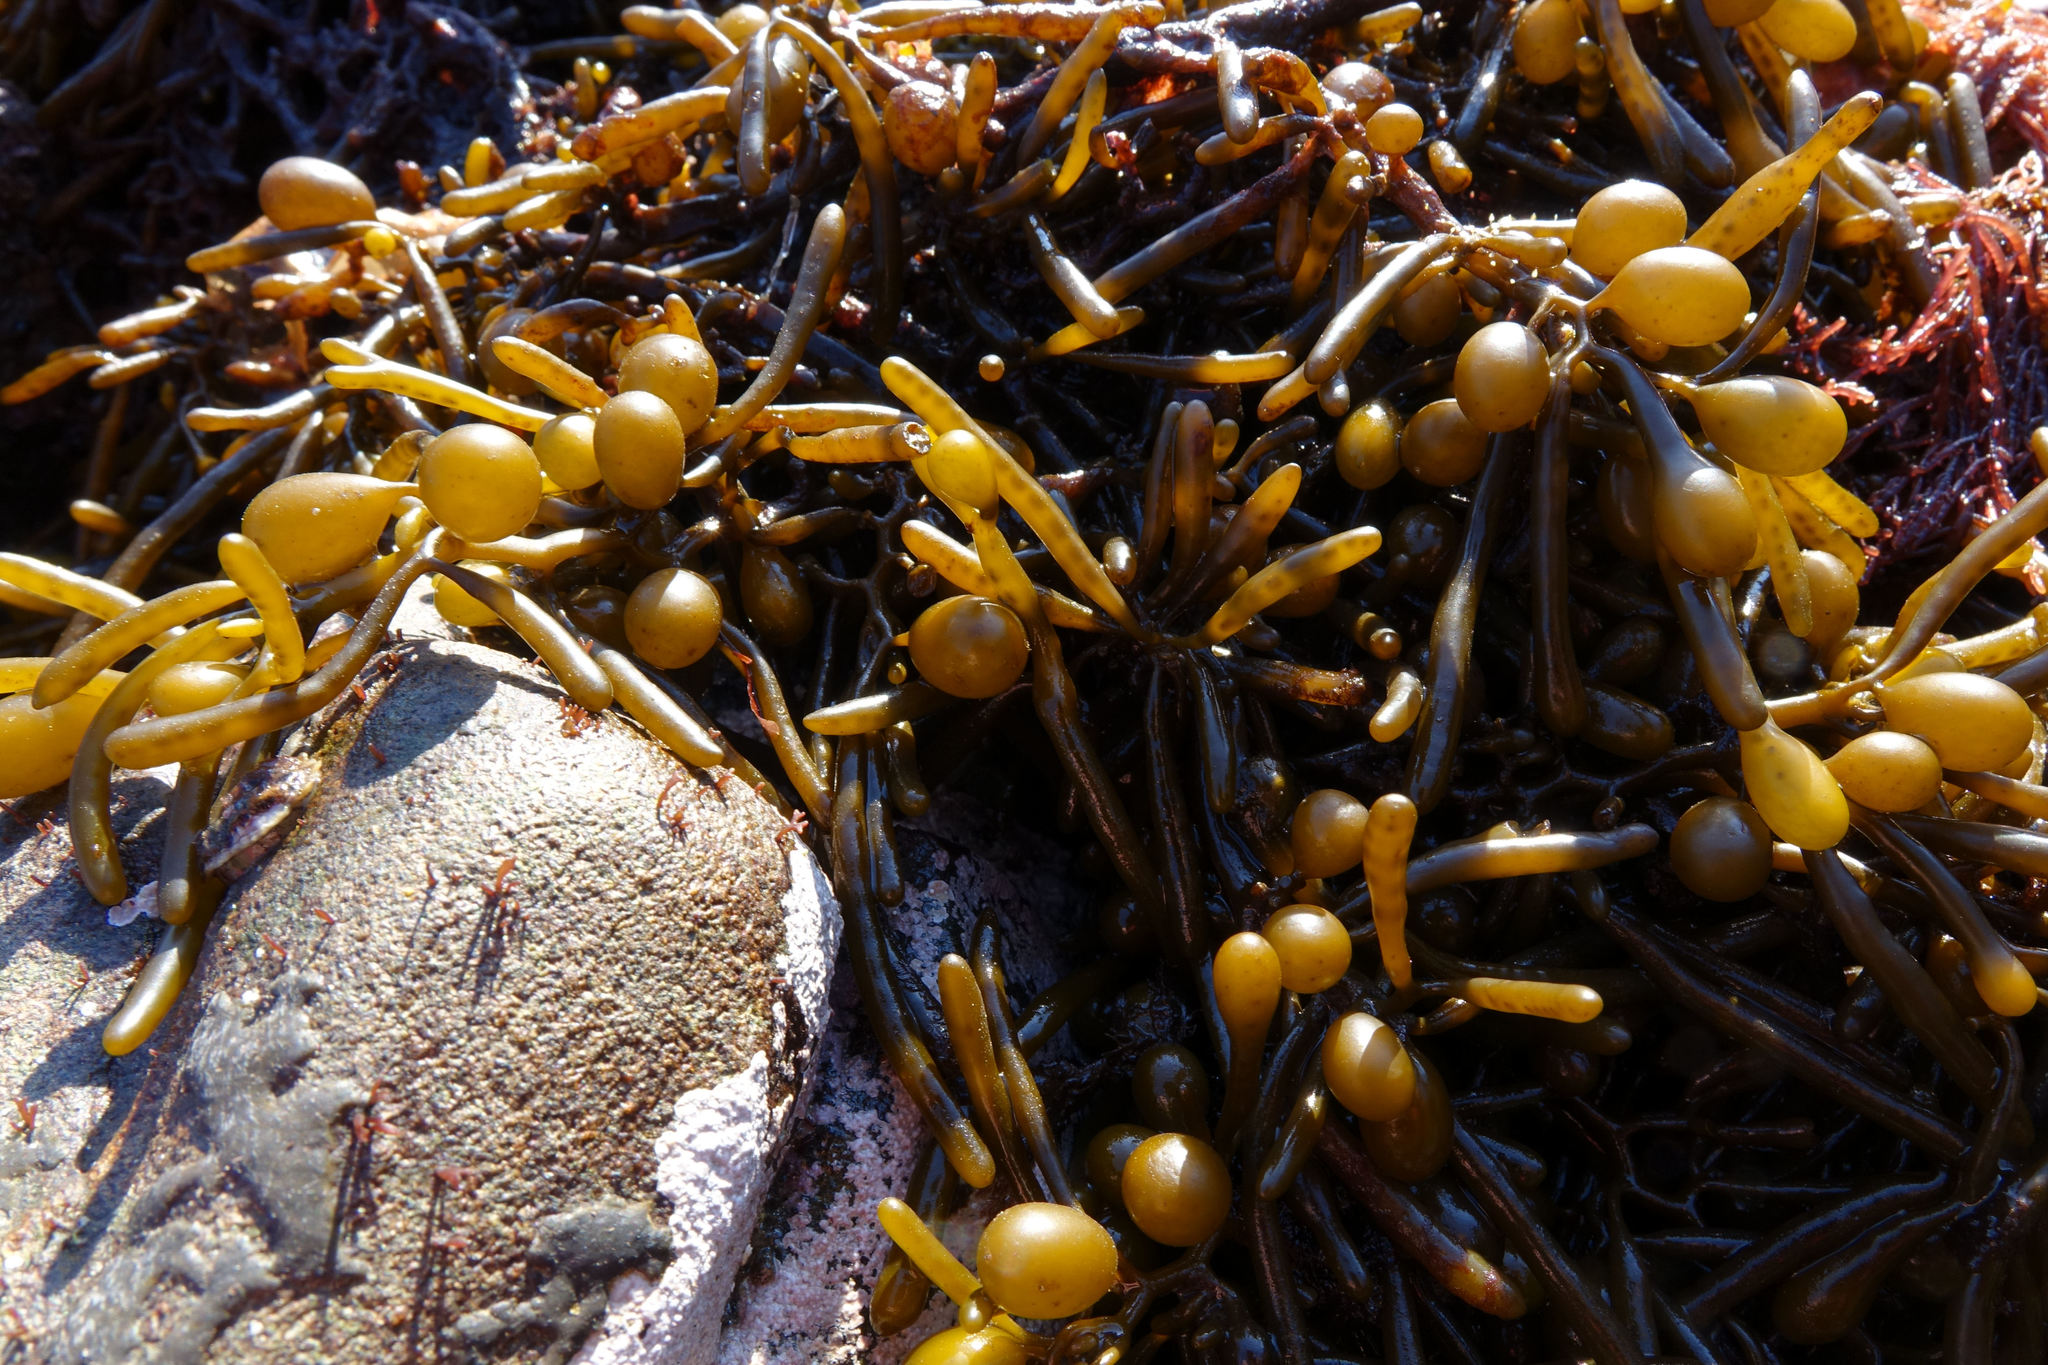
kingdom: Chromista
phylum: Ochrophyta
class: Phaeophyceae
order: Fucales
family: Sargassaceae
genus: Cystophora
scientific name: Cystophora torulosa
